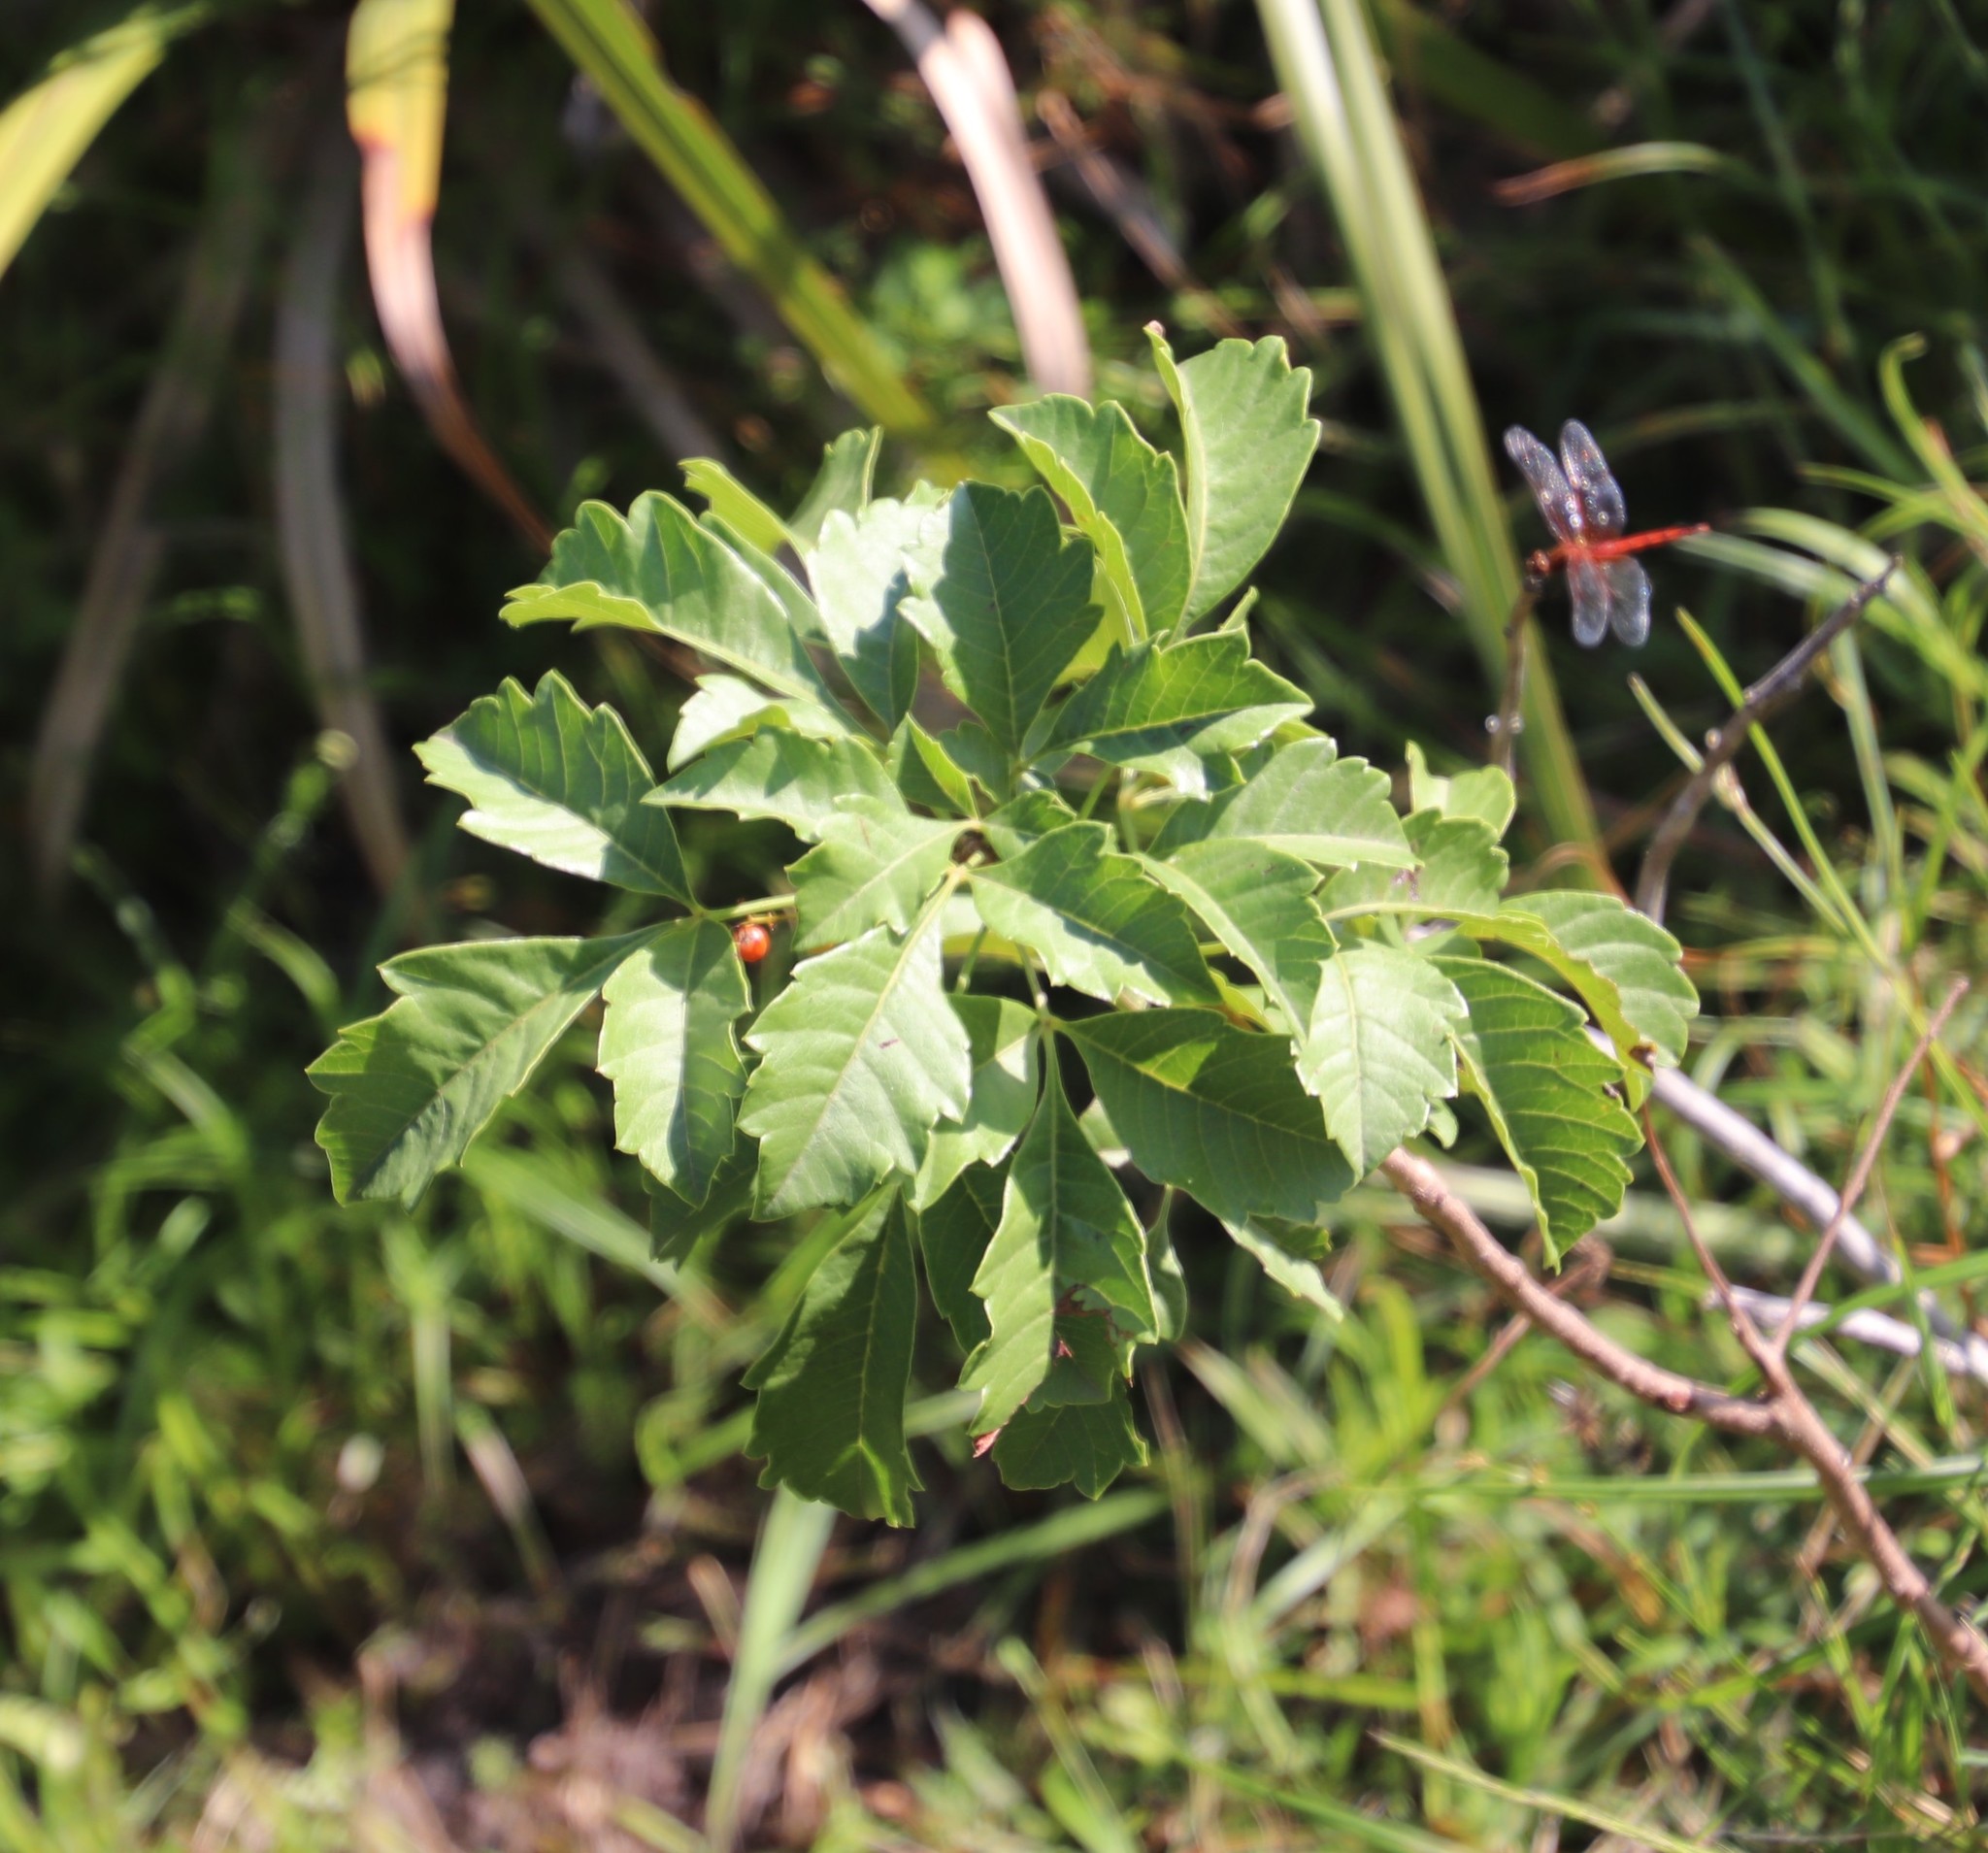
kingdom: Plantae
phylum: Tracheophyta
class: Magnoliopsida
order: Sapindales
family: Anacardiaceae
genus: Searsia
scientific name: Searsia dentata
